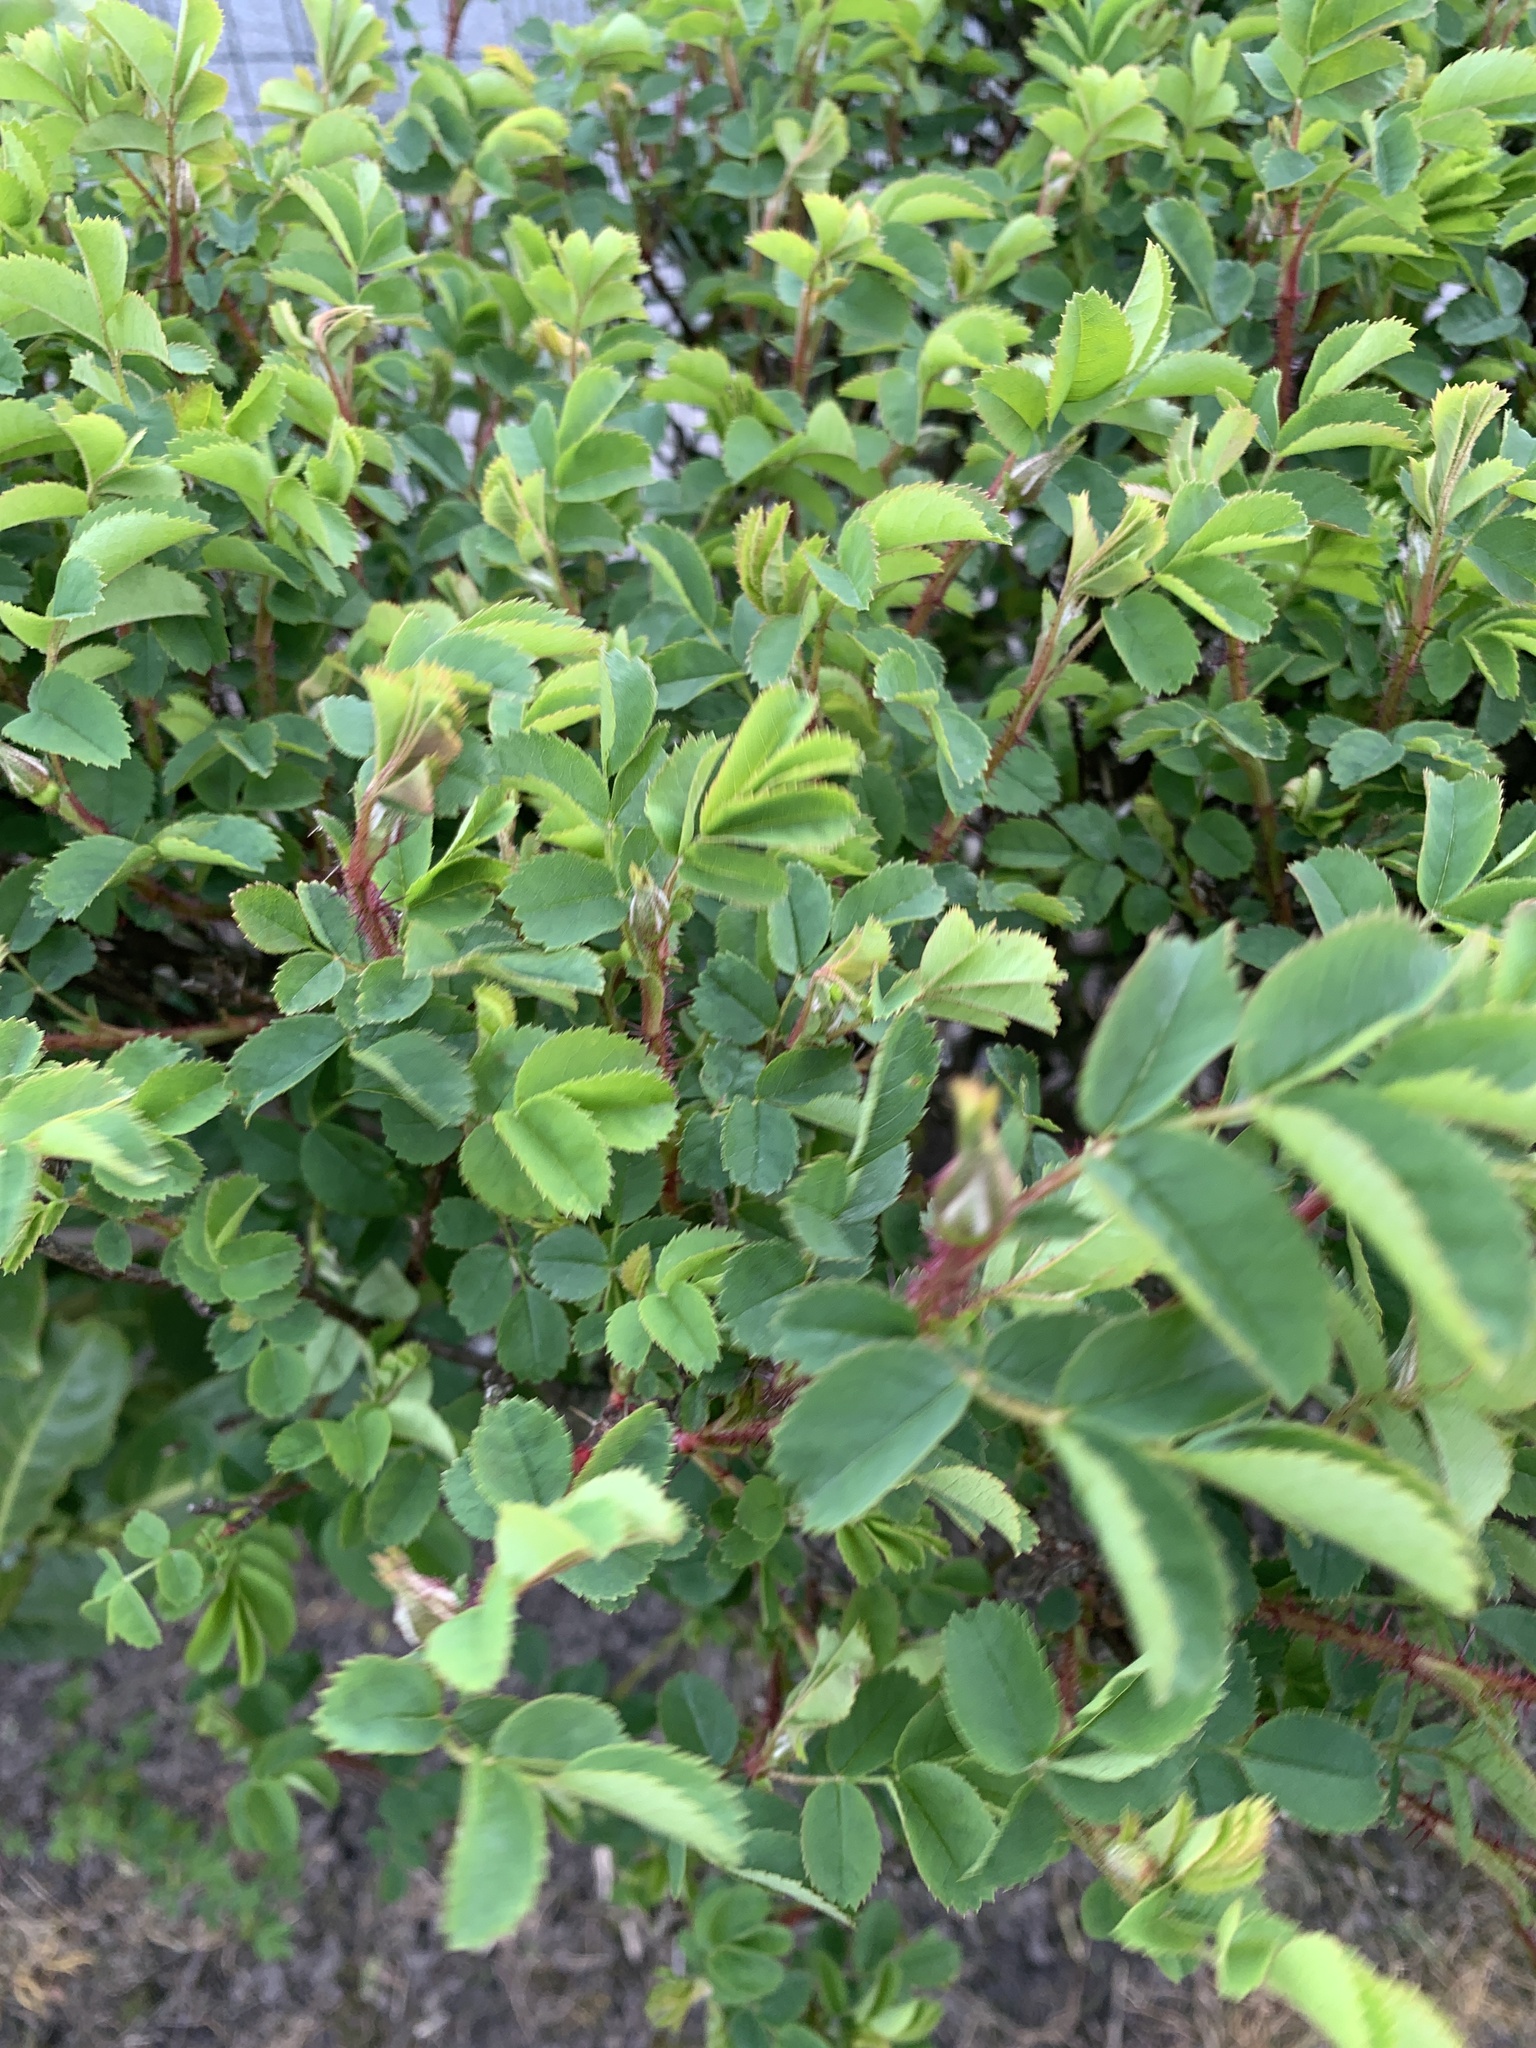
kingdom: Plantae
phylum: Tracheophyta
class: Magnoliopsida
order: Rosales
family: Rosaceae
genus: Rosa
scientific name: Rosa canina
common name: Dog rose
